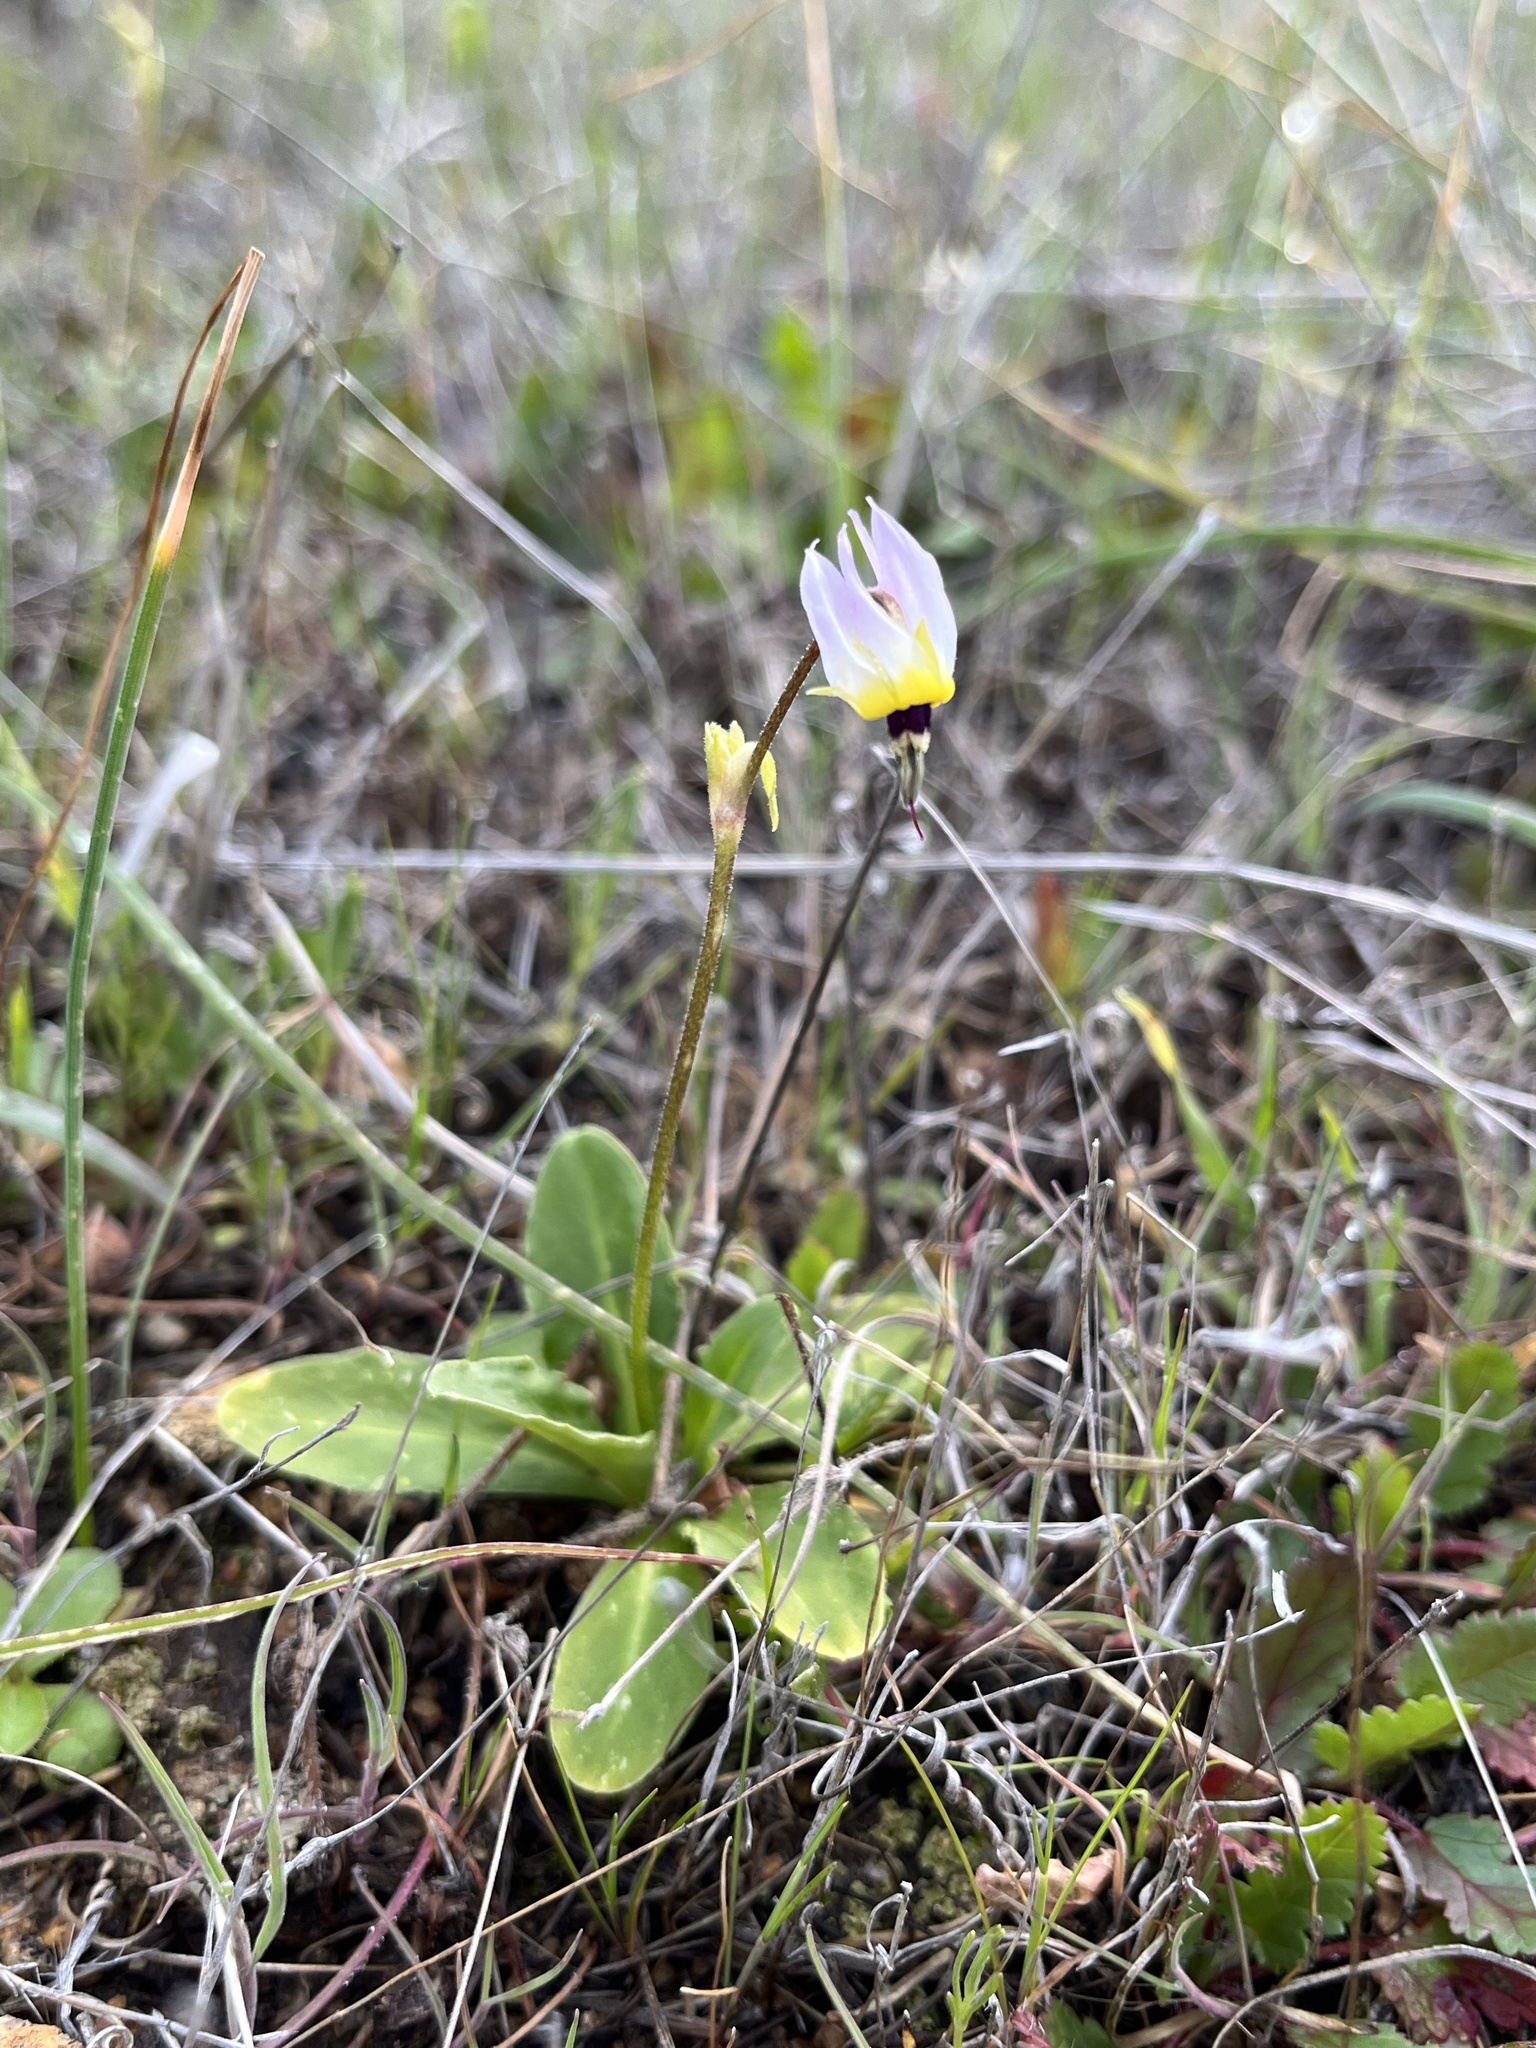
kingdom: Plantae
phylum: Tracheophyta
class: Magnoliopsida
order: Ericales
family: Primulaceae
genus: Dodecatheon
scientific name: Dodecatheon clevelandii
